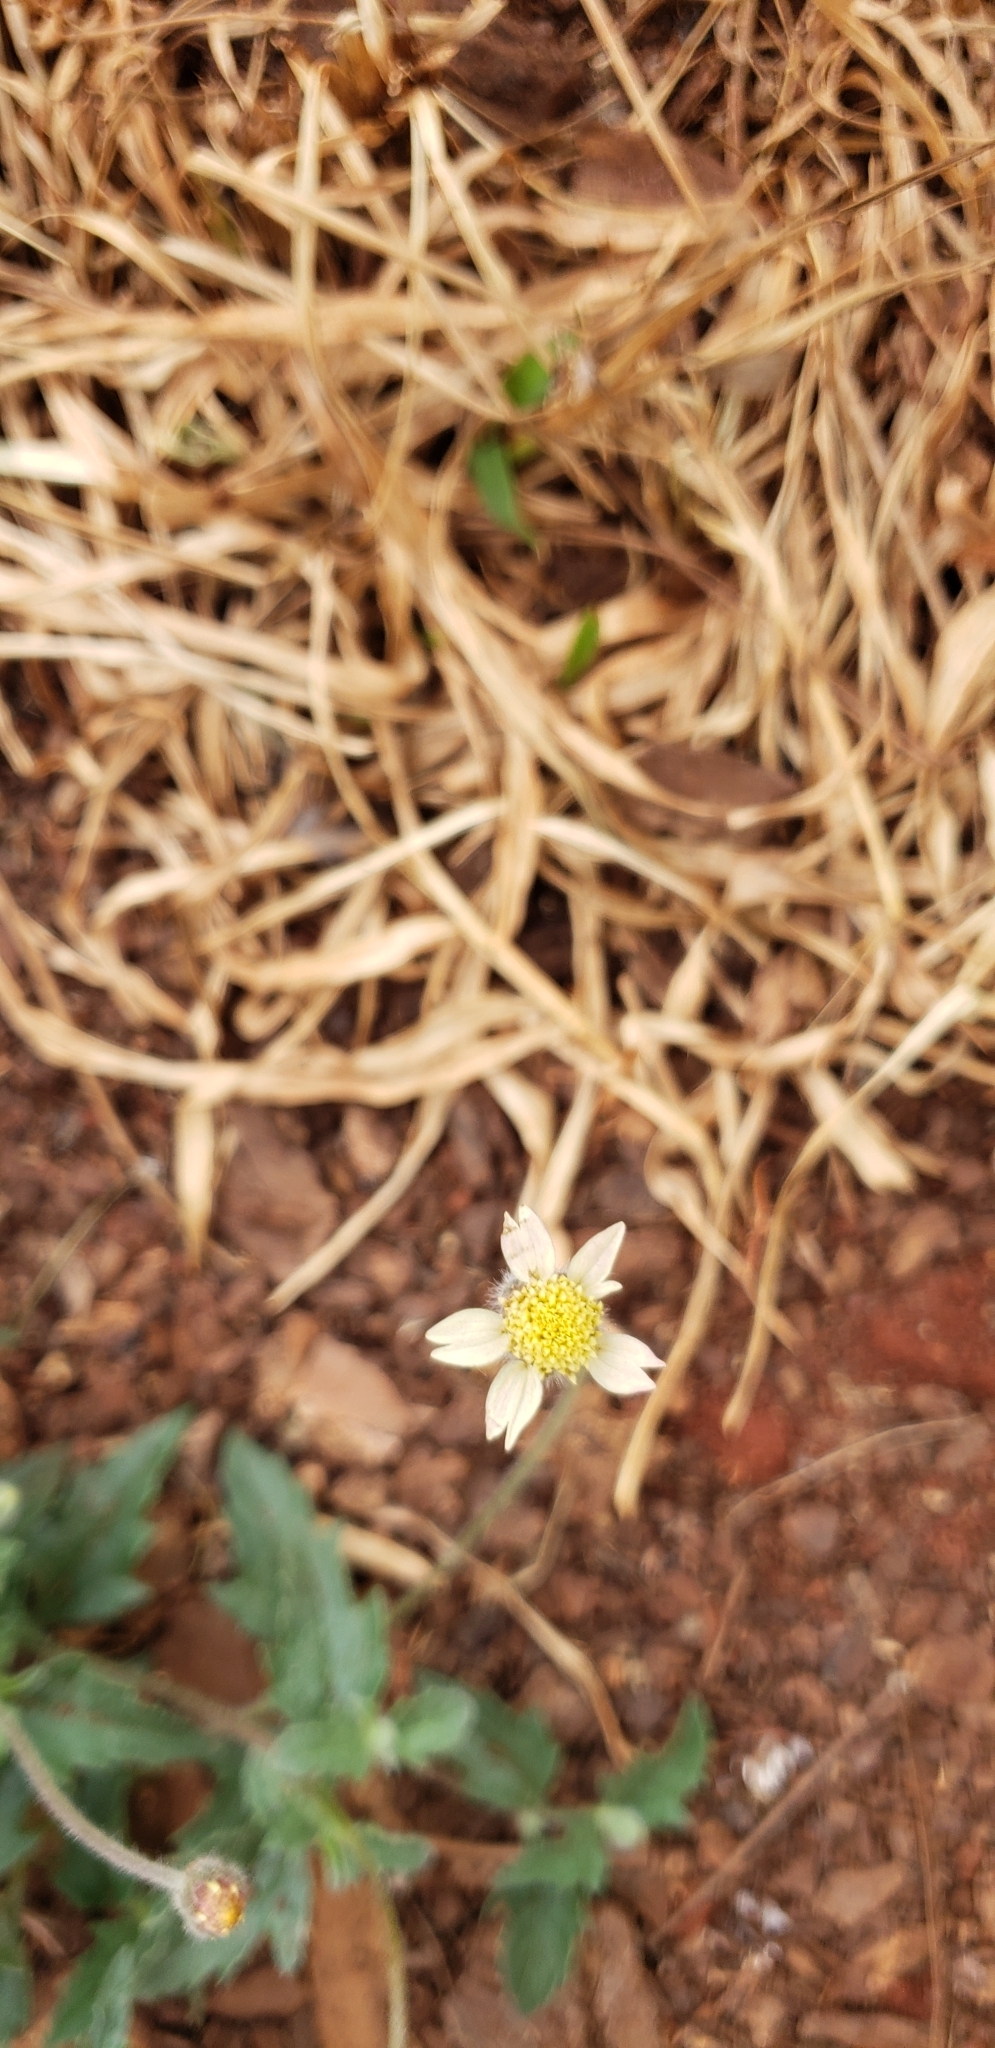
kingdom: Plantae
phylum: Tracheophyta
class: Magnoliopsida
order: Asterales
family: Asteraceae
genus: Tridax
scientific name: Tridax procumbens
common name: Coatbuttons
